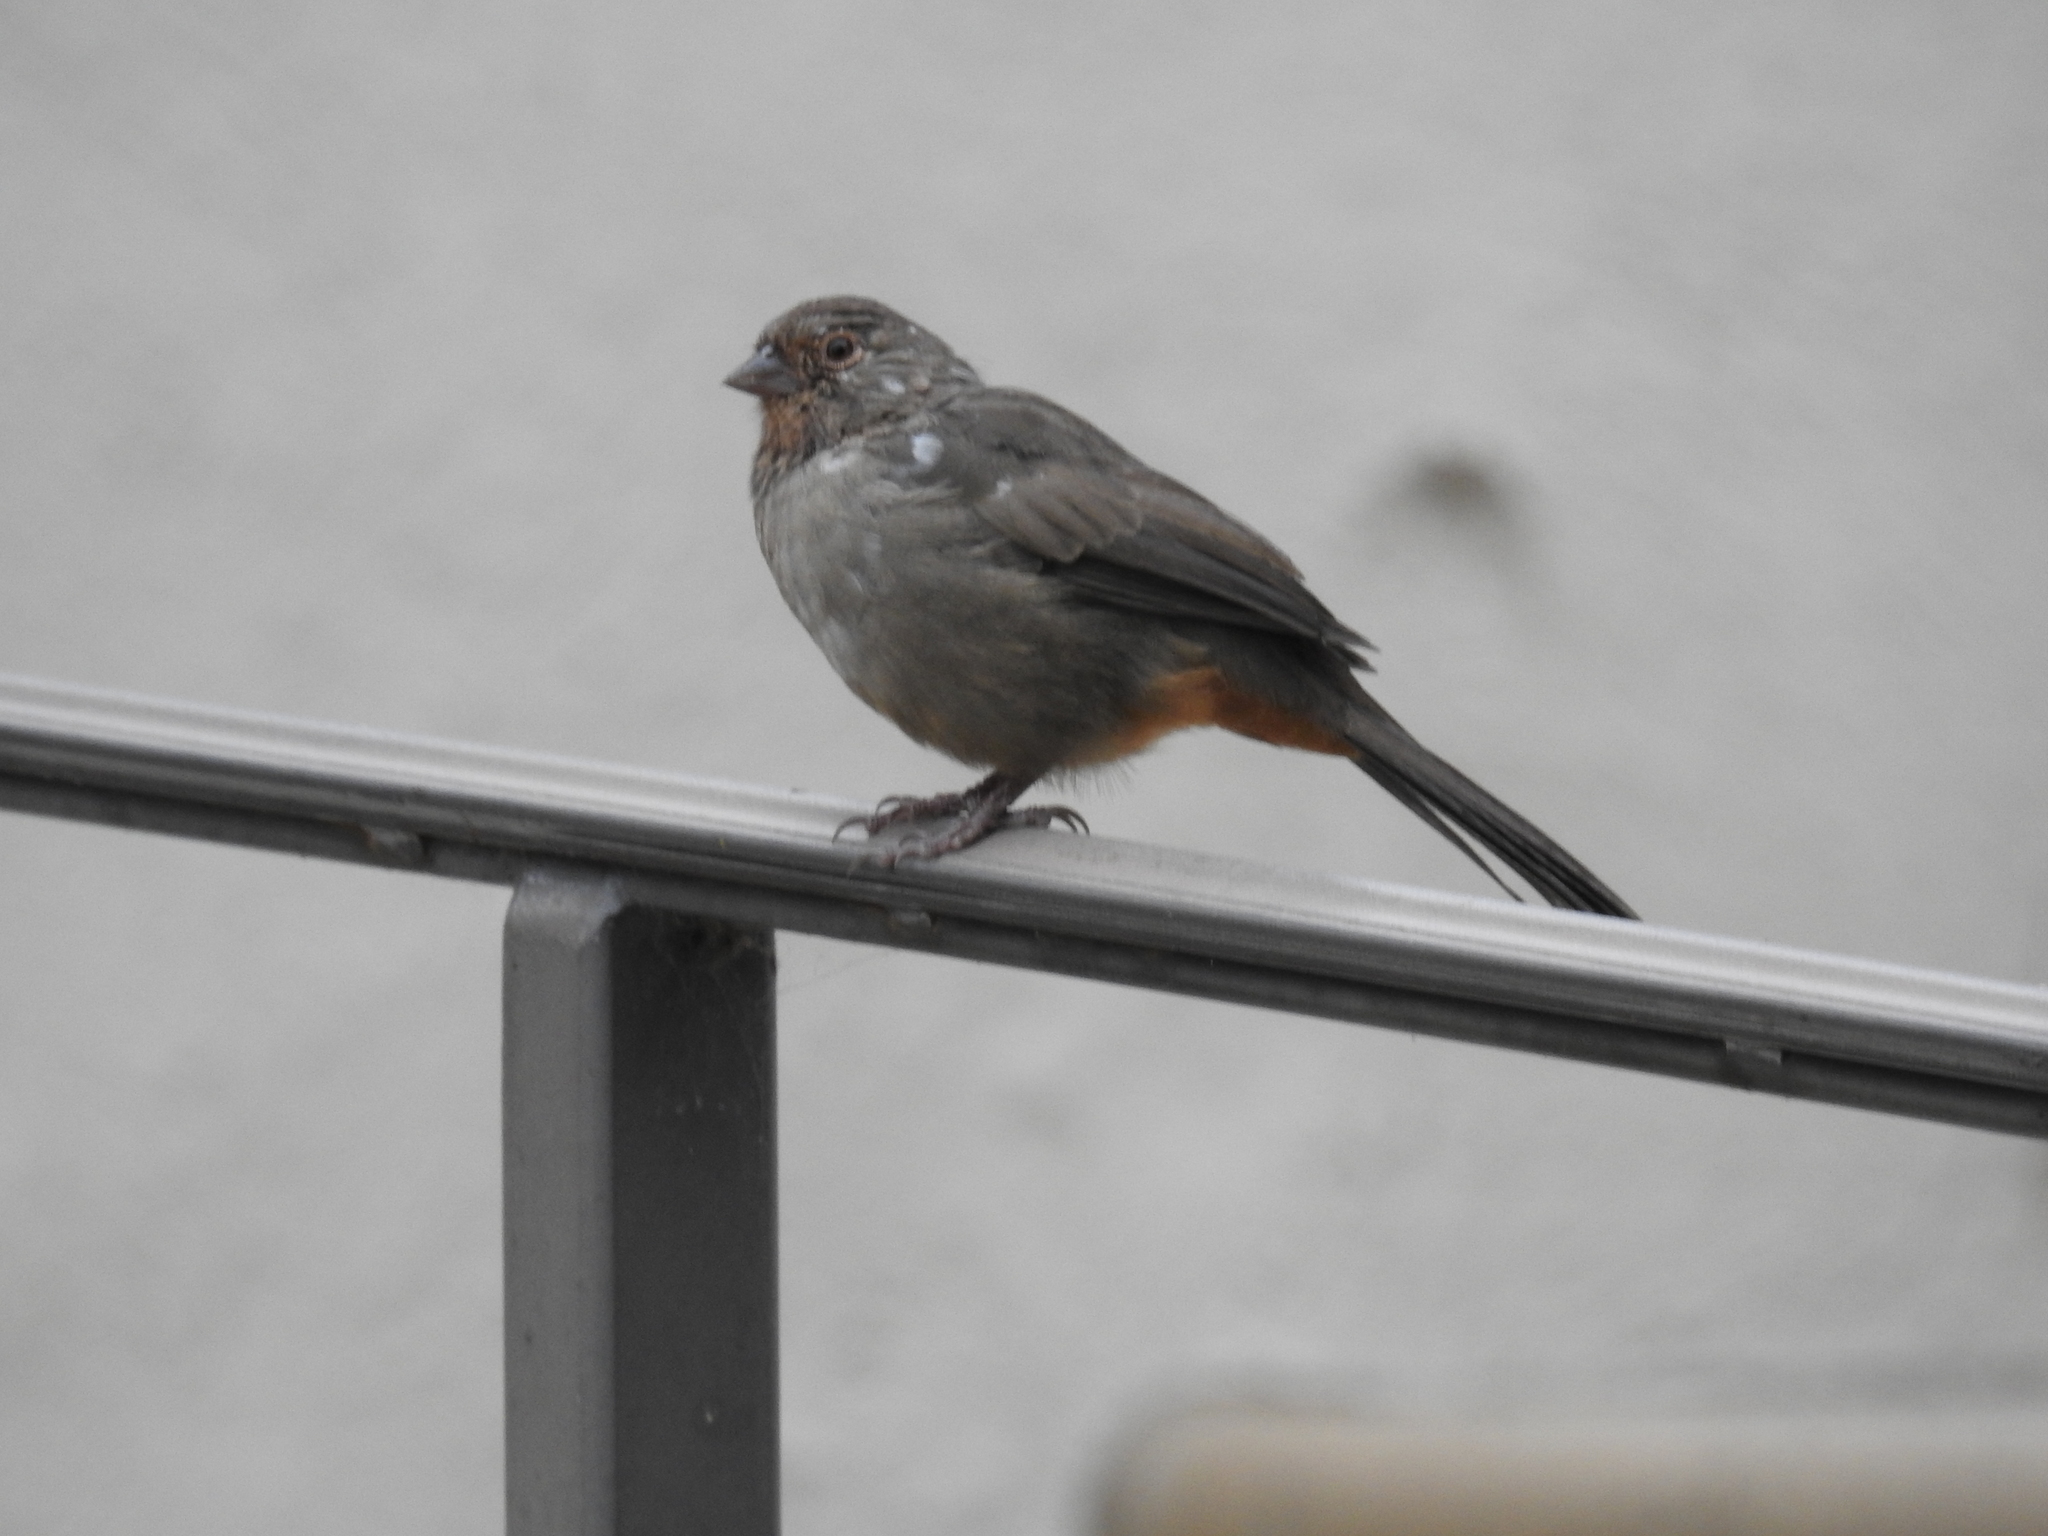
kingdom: Animalia
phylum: Chordata
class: Aves
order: Passeriformes
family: Passerellidae
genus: Melozone
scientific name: Melozone crissalis
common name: California towhee
